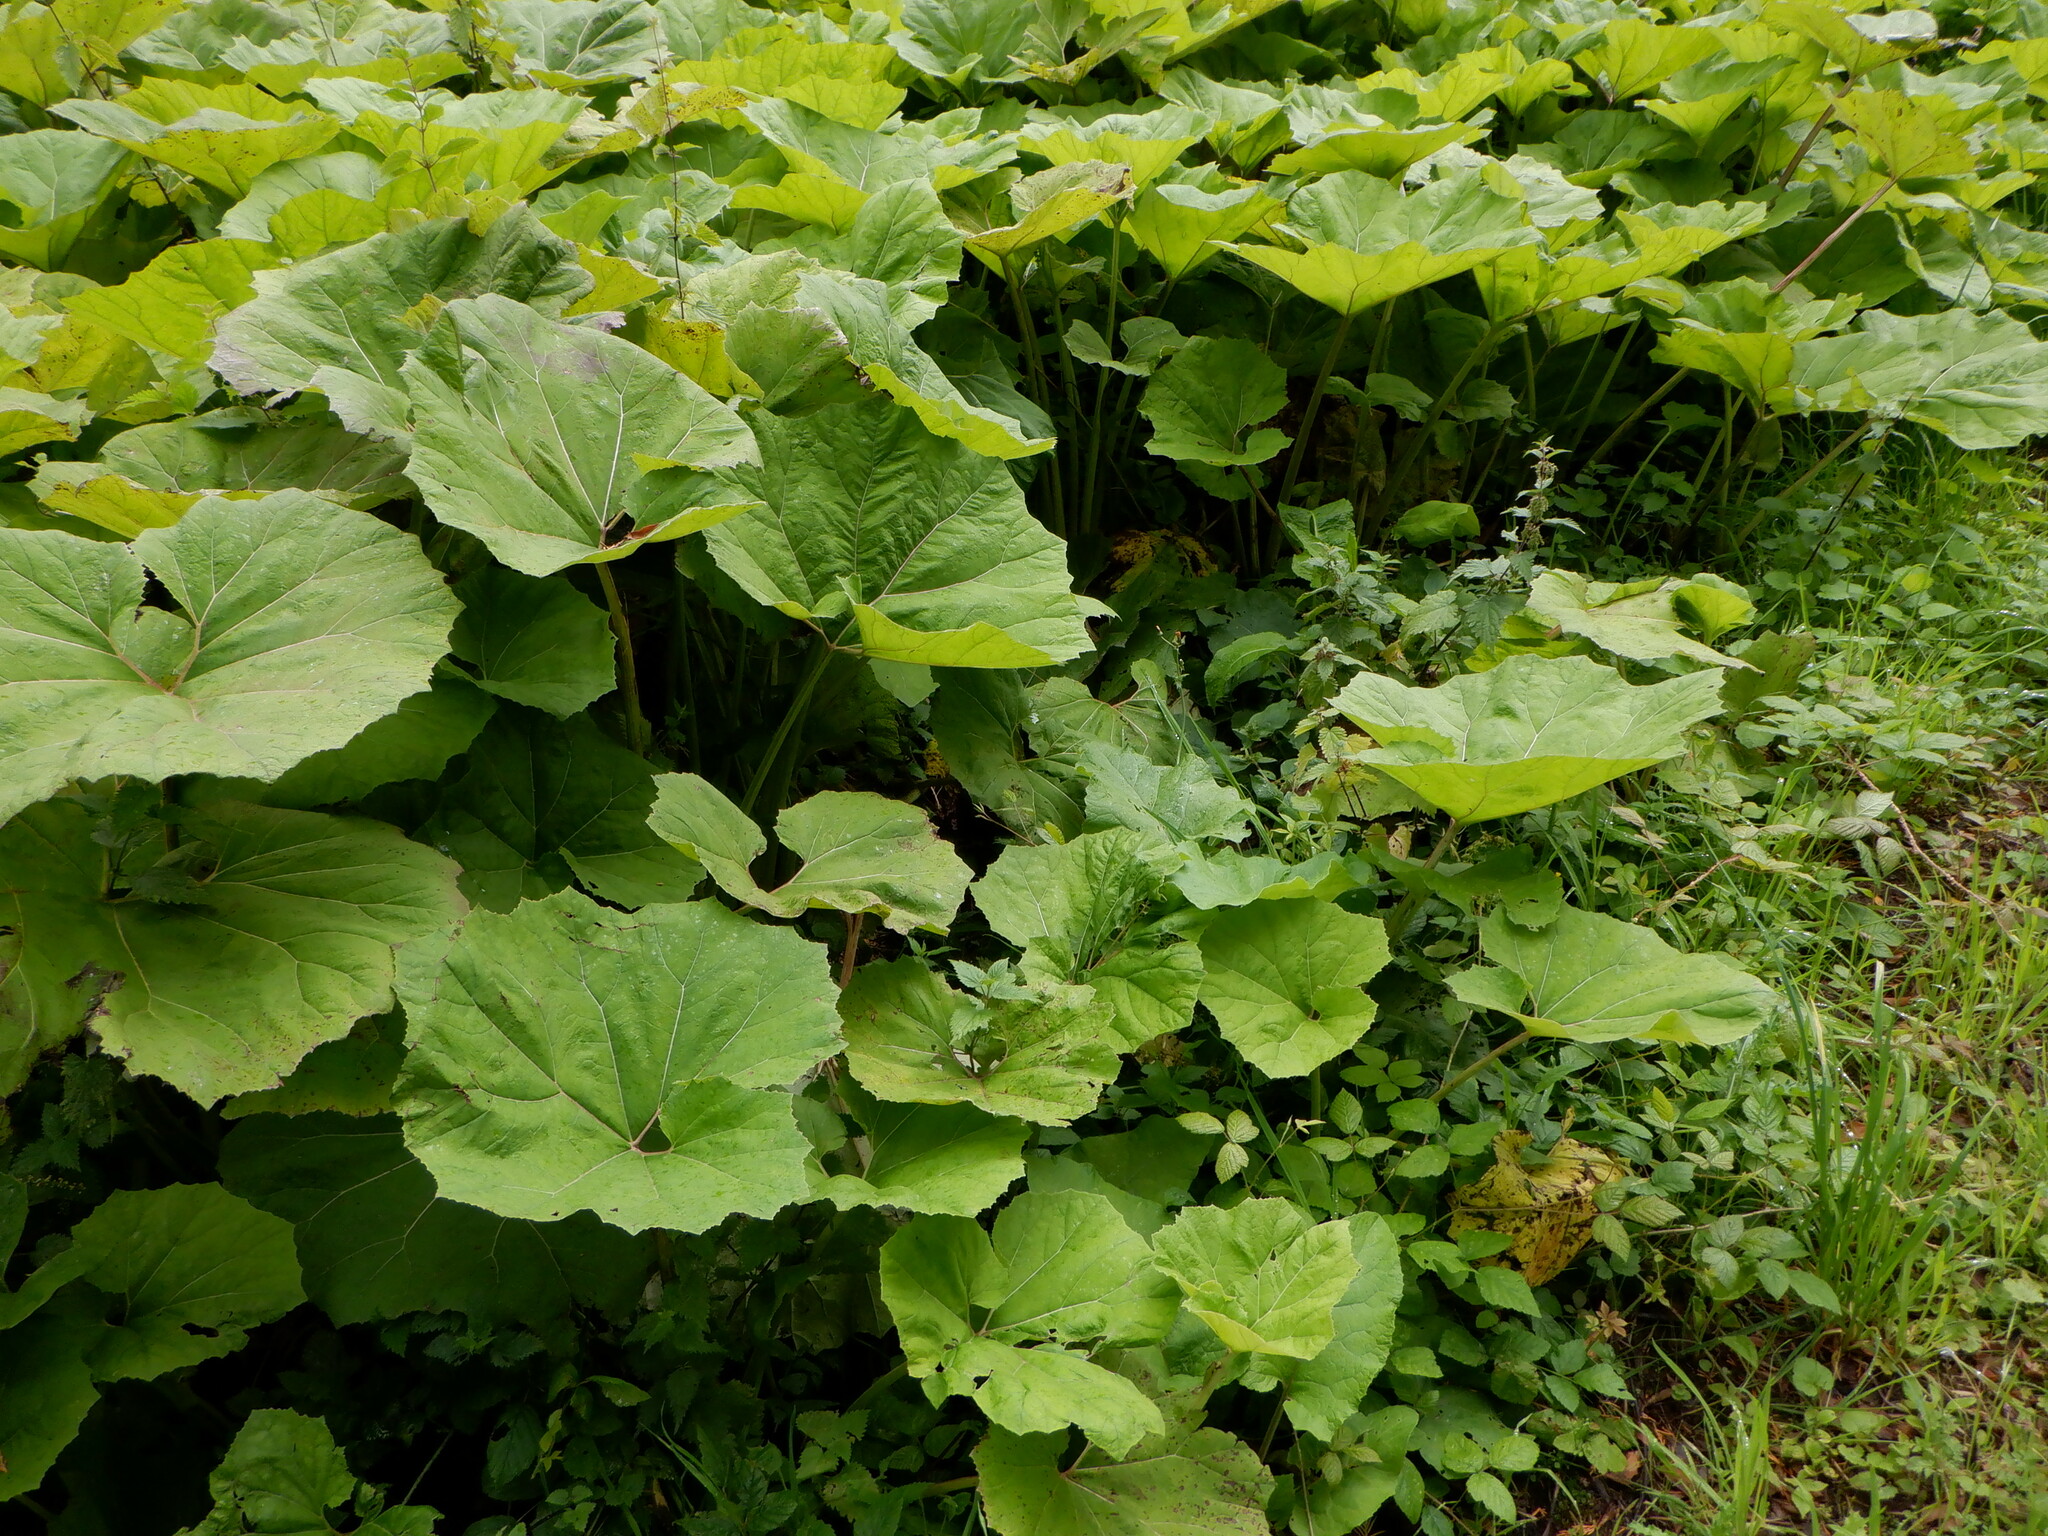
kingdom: Plantae
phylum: Tracheophyta
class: Magnoliopsida
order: Asterales
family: Asteraceae
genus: Petasites
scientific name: Petasites hybridus
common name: Butterbur
